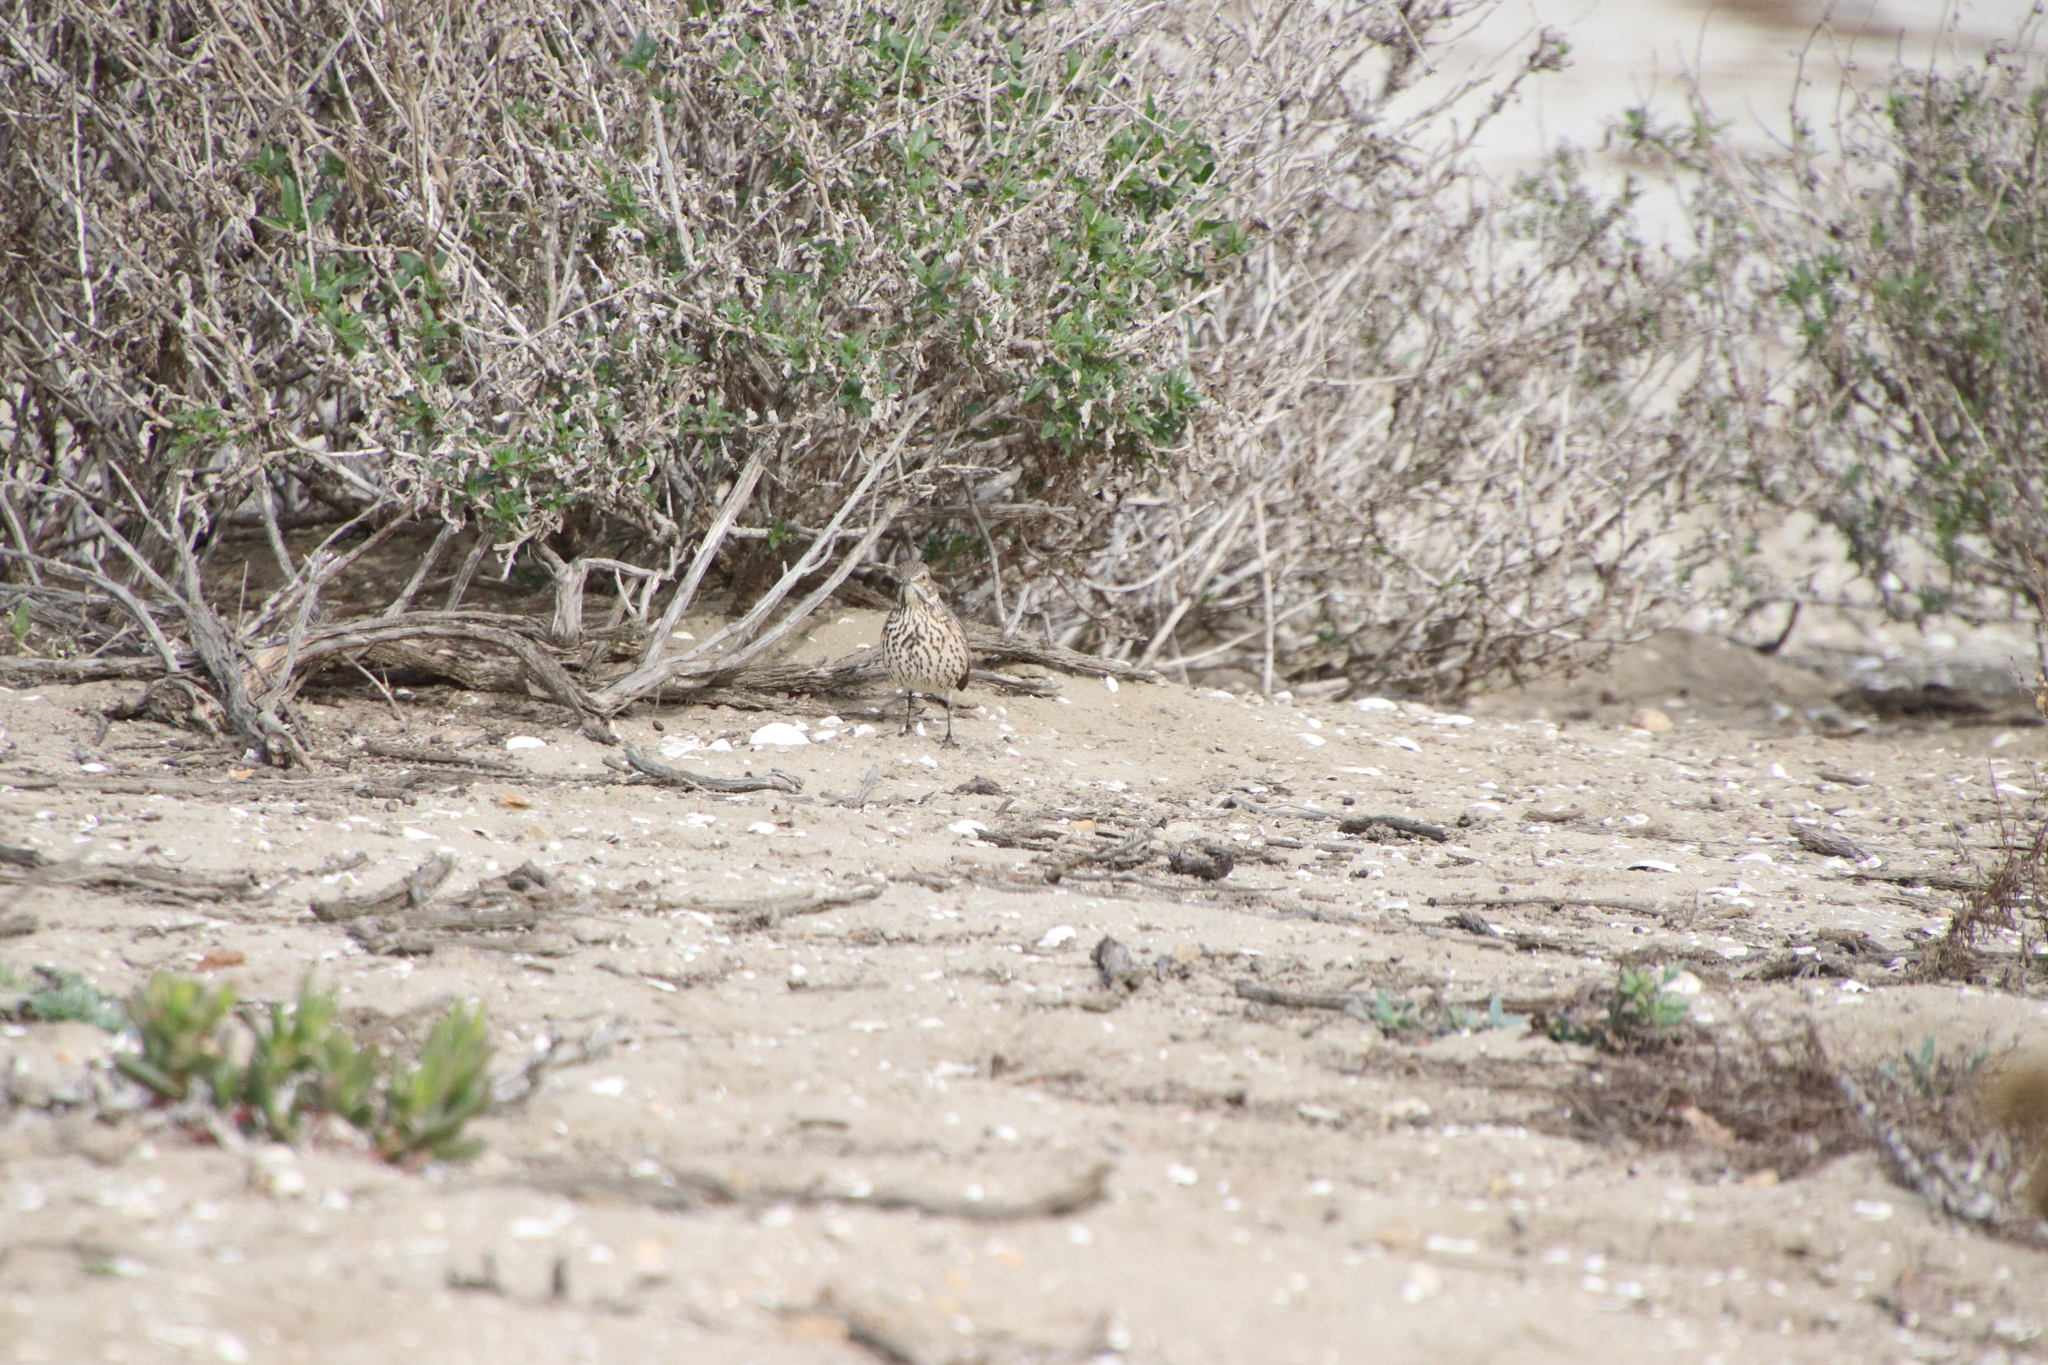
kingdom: Animalia
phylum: Chordata
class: Aves
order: Passeriformes
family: Mimidae
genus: Oreoscoptes
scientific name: Oreoscoptes montanus
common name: Sage thrasher
